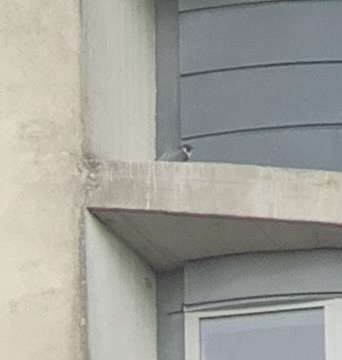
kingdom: Animalia
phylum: Chordata
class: Aves
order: Falconiformes
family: Falconidae
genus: Falco
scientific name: Falco peregrinus
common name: Peregrine falcon
